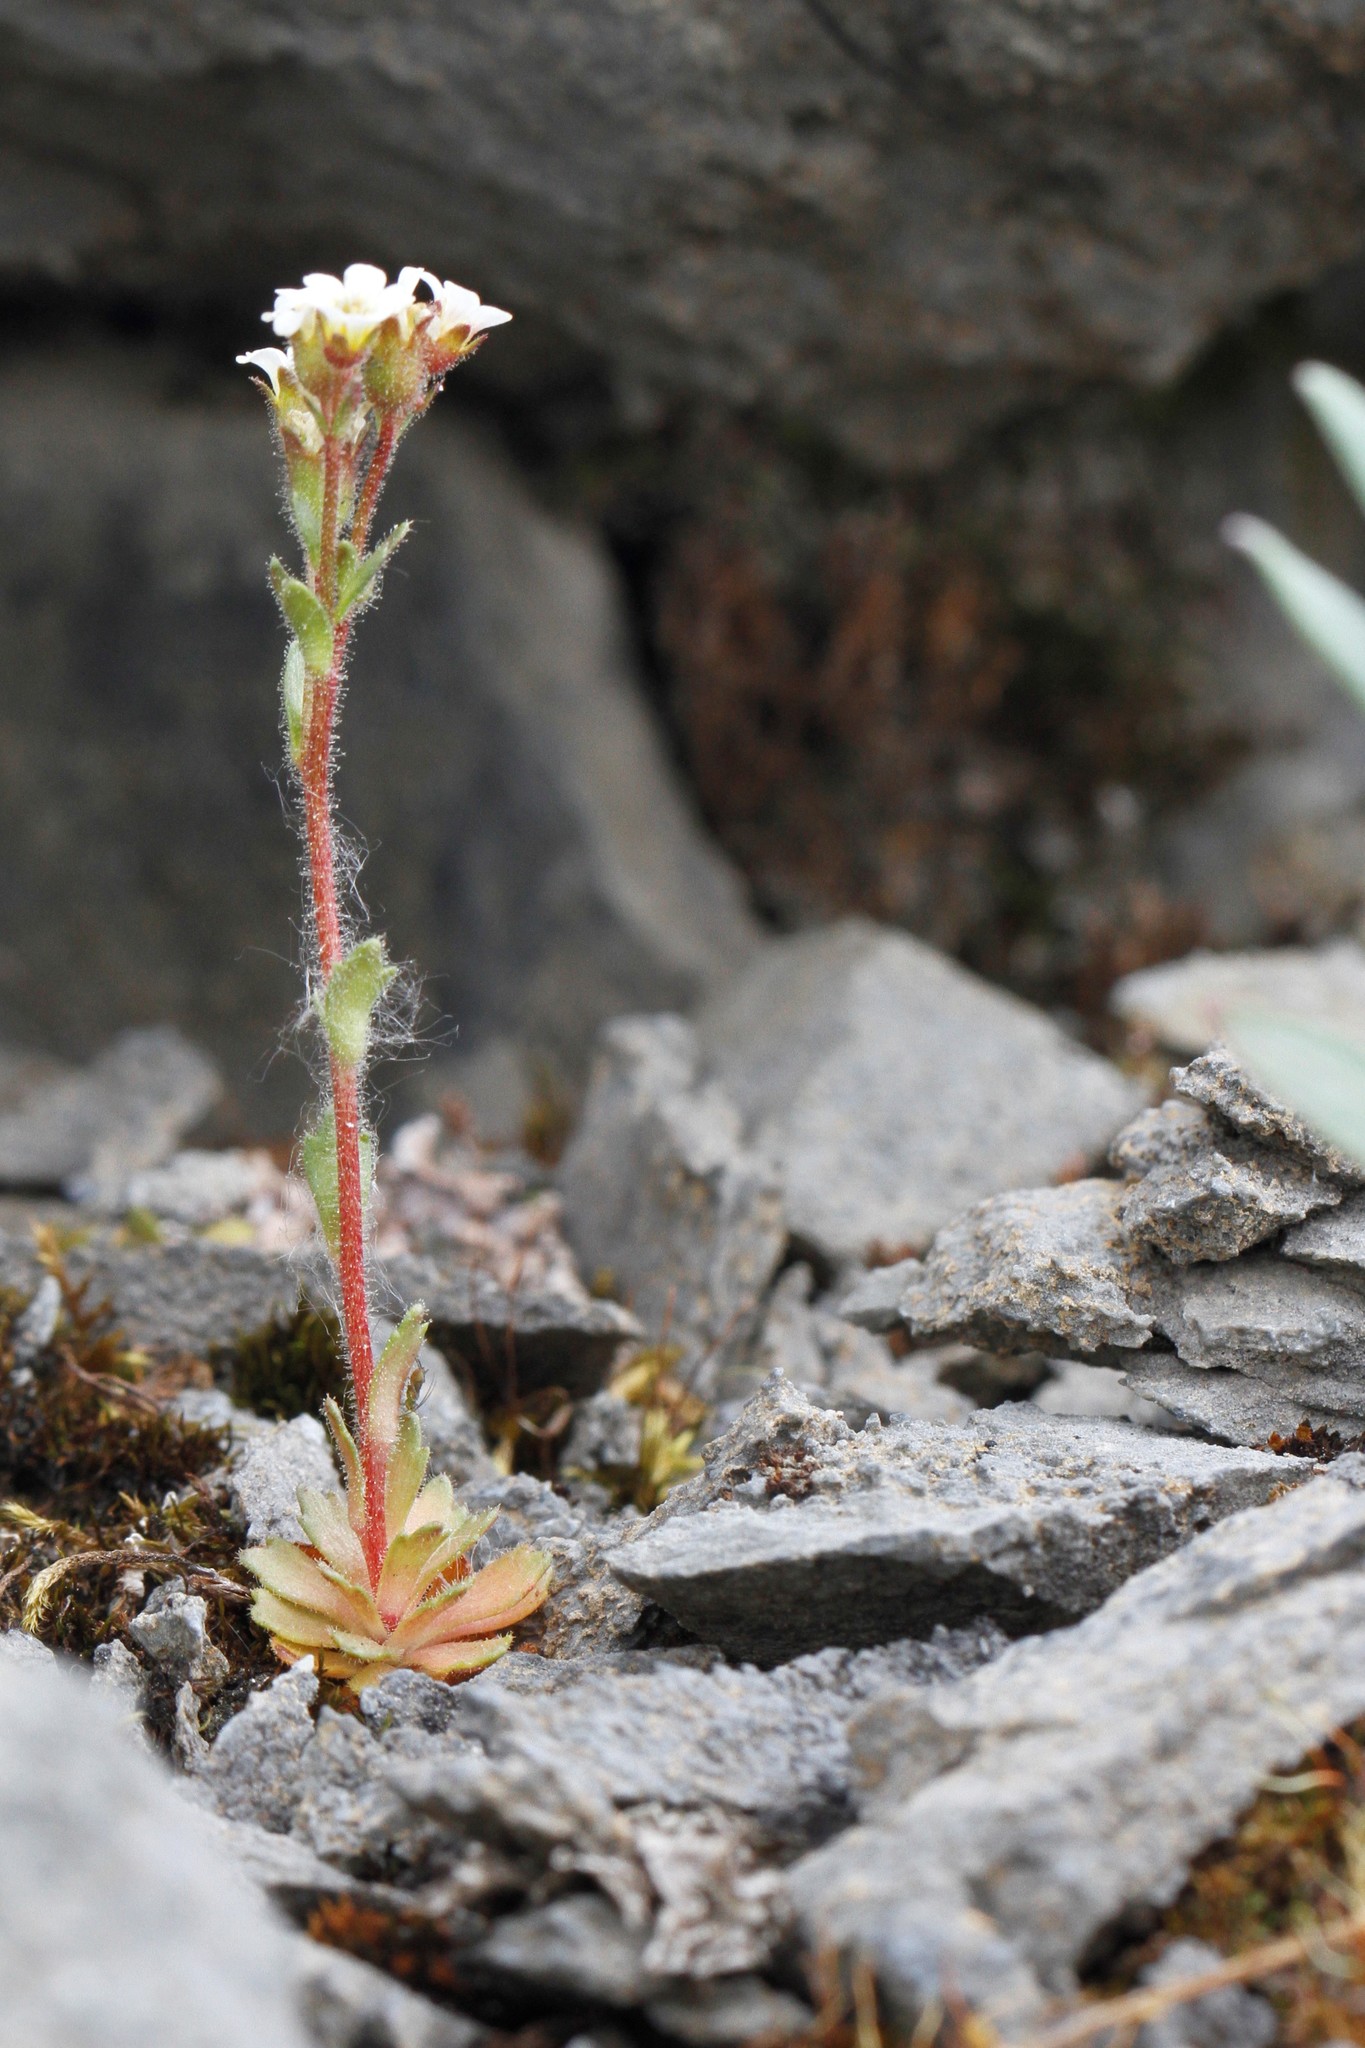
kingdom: Plantae
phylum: Tracheophyta
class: Magnoliopsida
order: Saxifragales
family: Saxifragaceae
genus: Saxifraga
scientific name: Saxifraga adscendens
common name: Ascending saxifrage
